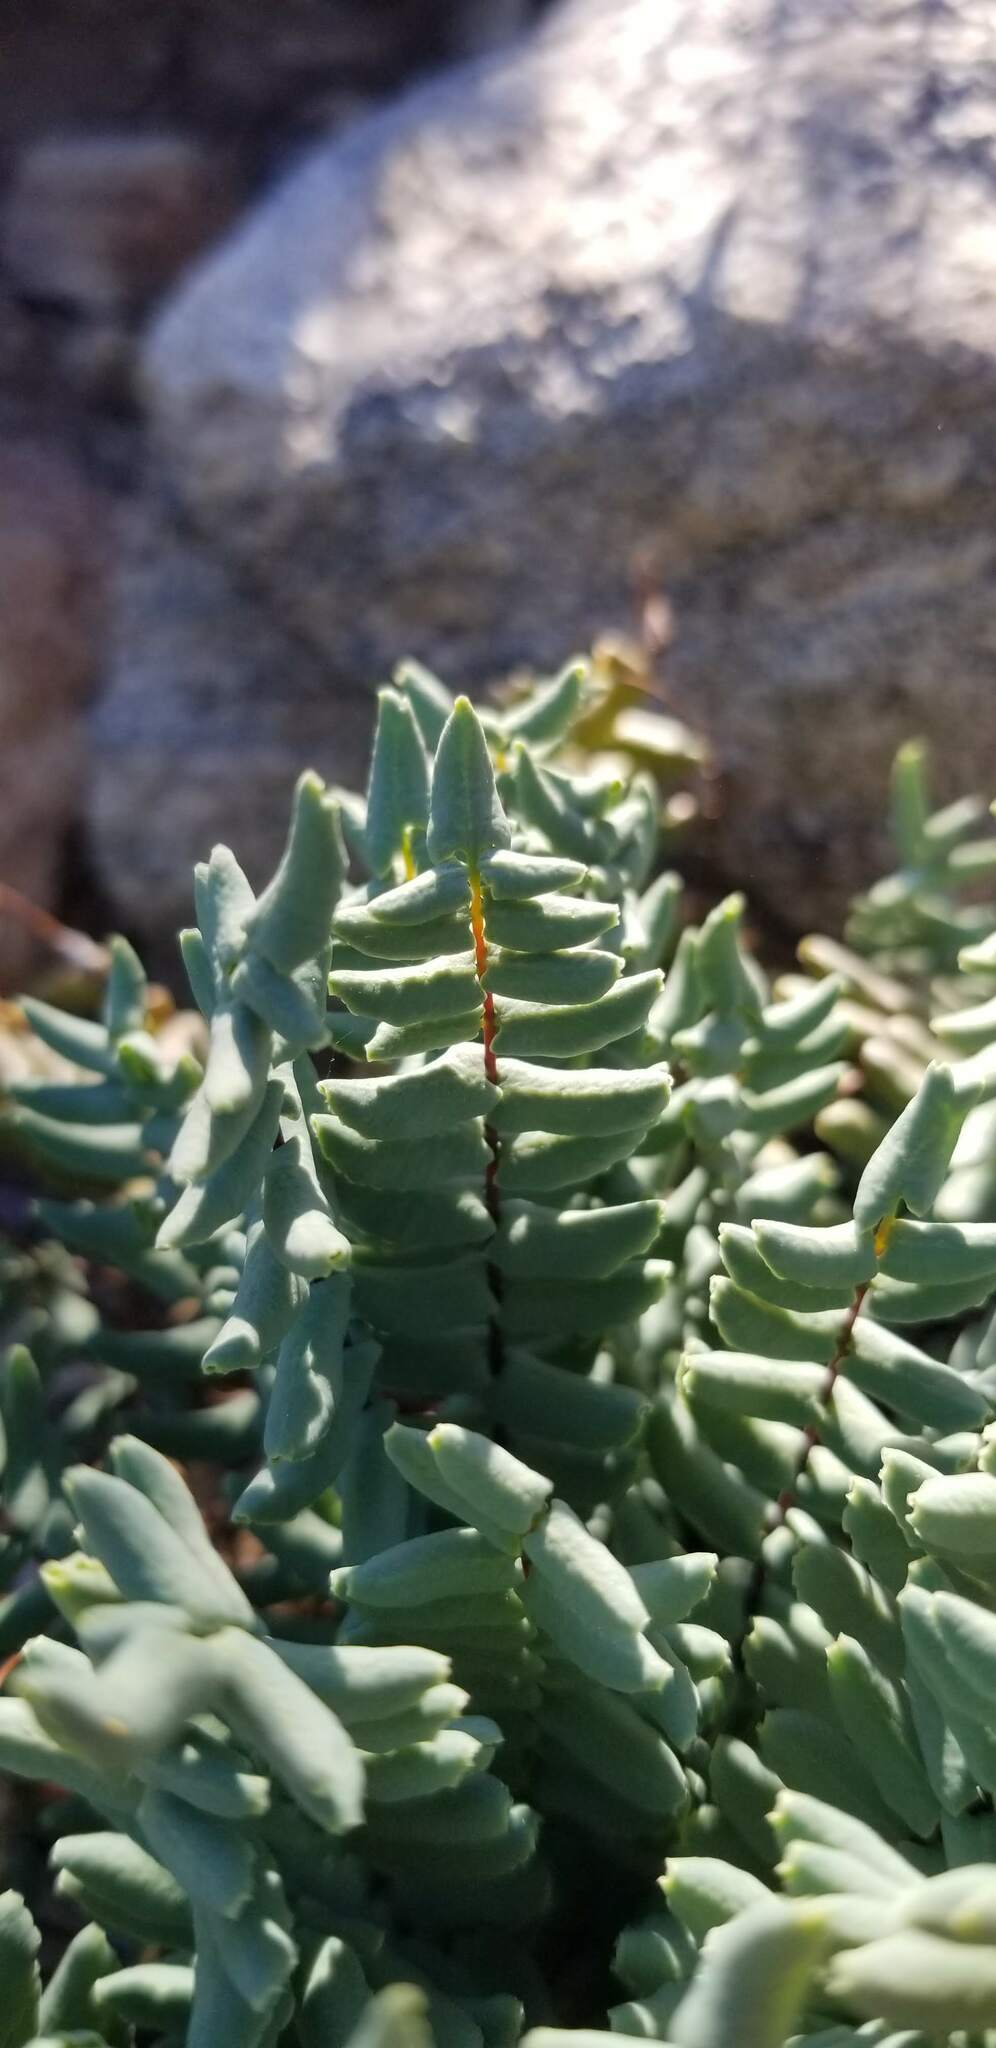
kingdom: Plantae
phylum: Tracheophyta
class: Polypodiopsida
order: Polypodiales
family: Pteridaceae
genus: Pellaea
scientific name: Pellaea bridgesii
